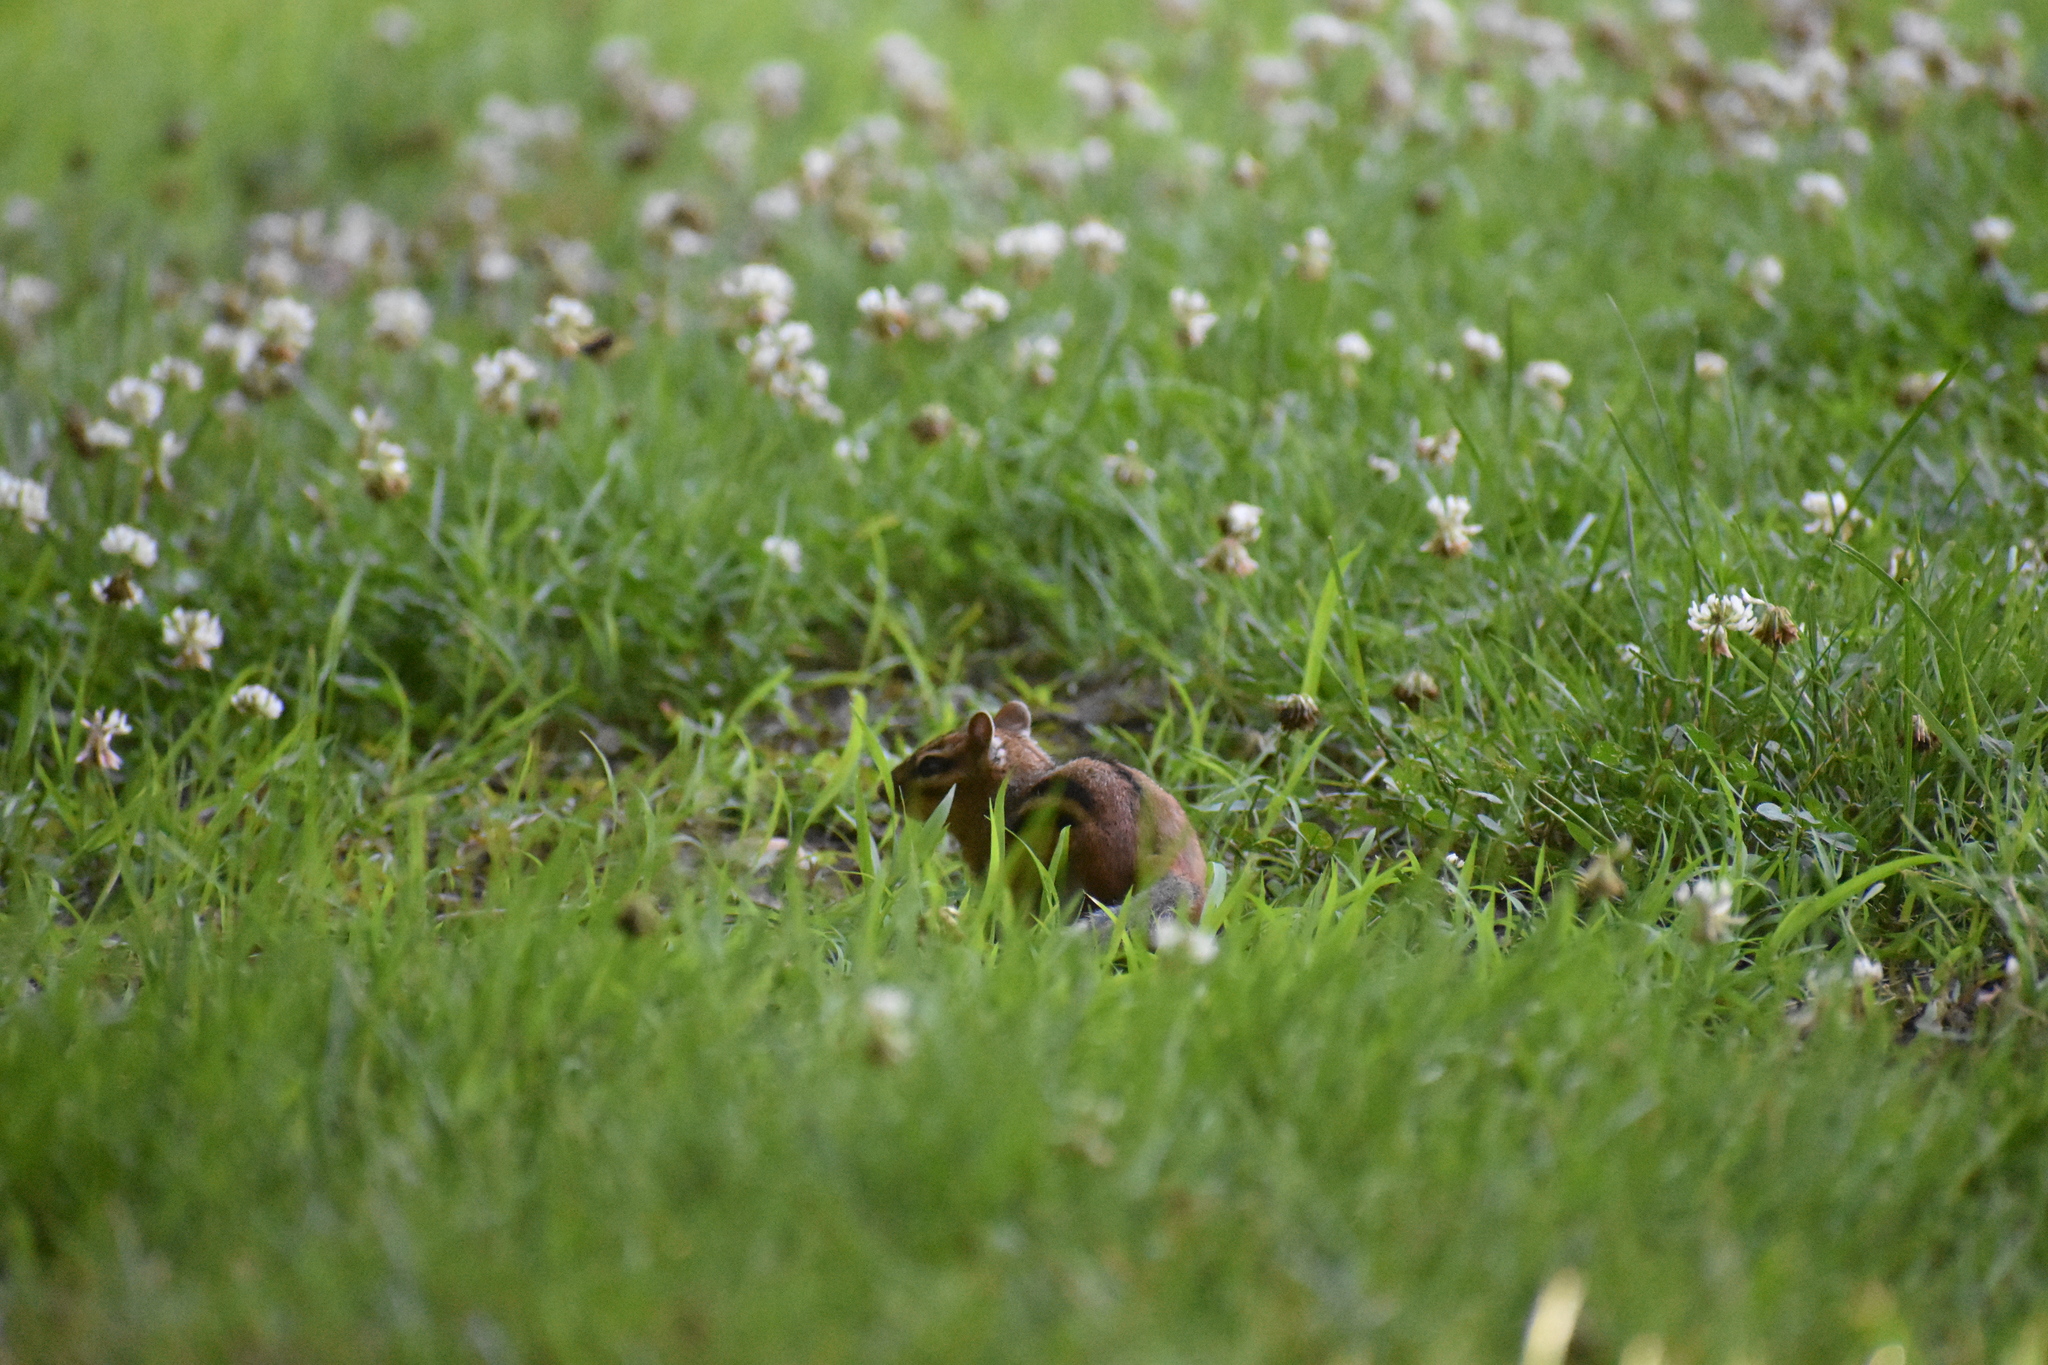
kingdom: Animalia
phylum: Chordata
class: Mammalia
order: Rodentia
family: Sciuridae
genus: Tamias
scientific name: Tamias striatus
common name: Eastern chipmunk
